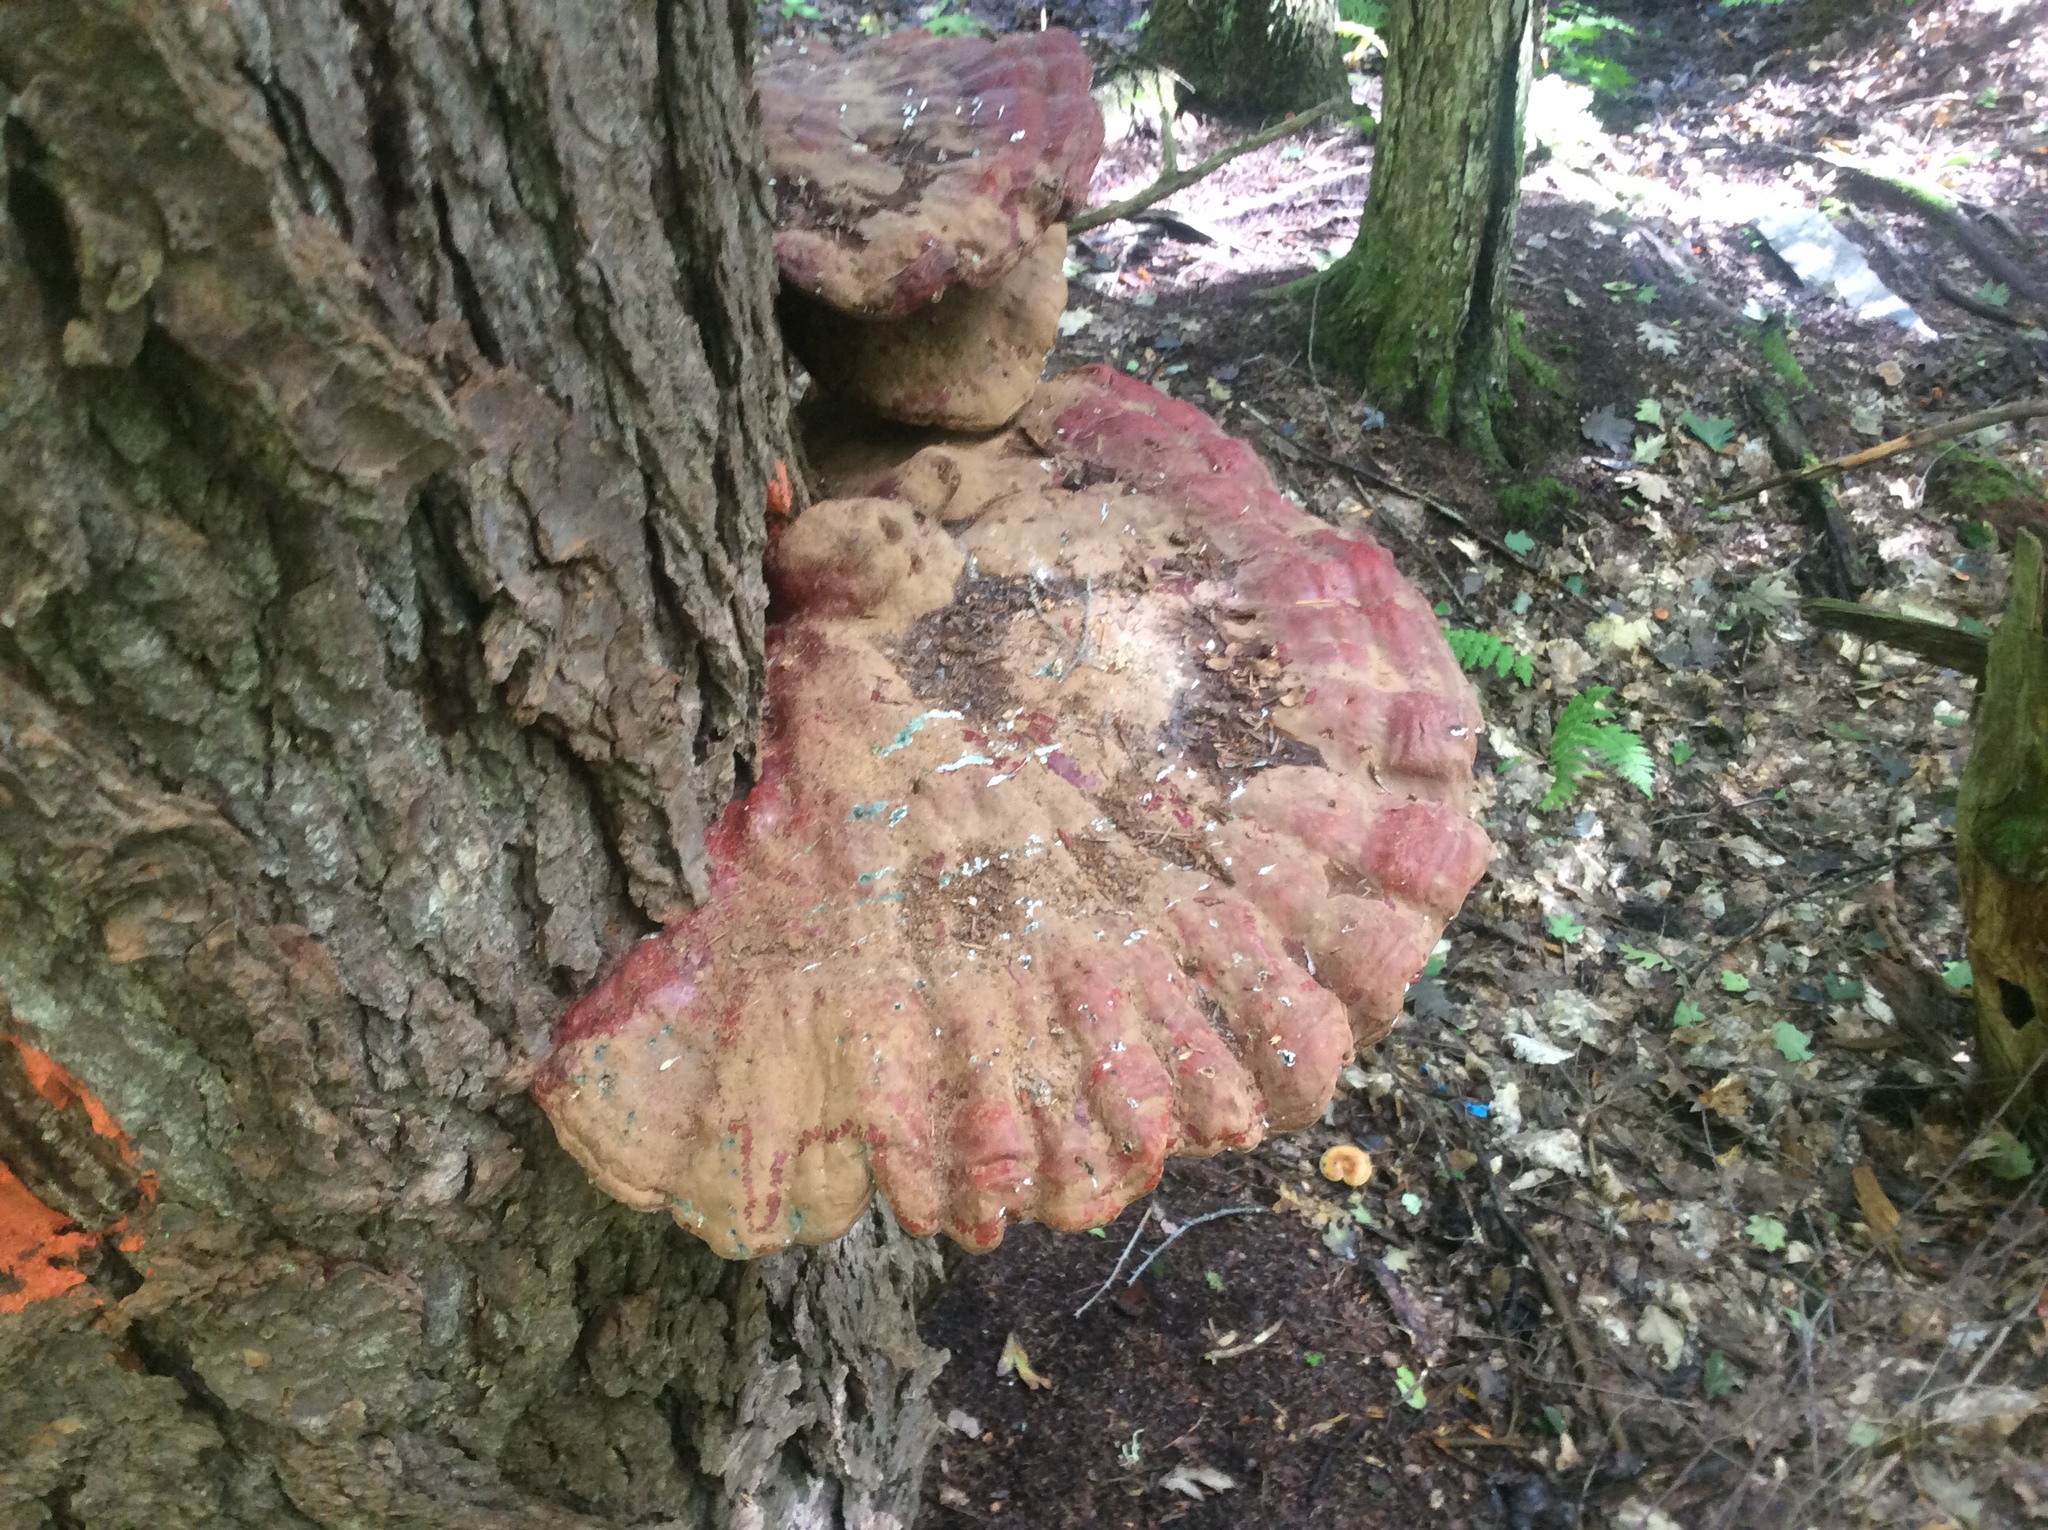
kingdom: Fungi
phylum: Basidiomycota
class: Agaricomycetes
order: Polyporales
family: Polyporaceae
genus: Ganoderma
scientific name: Ganoderma tsugae
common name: Hemlock varnish shelf
